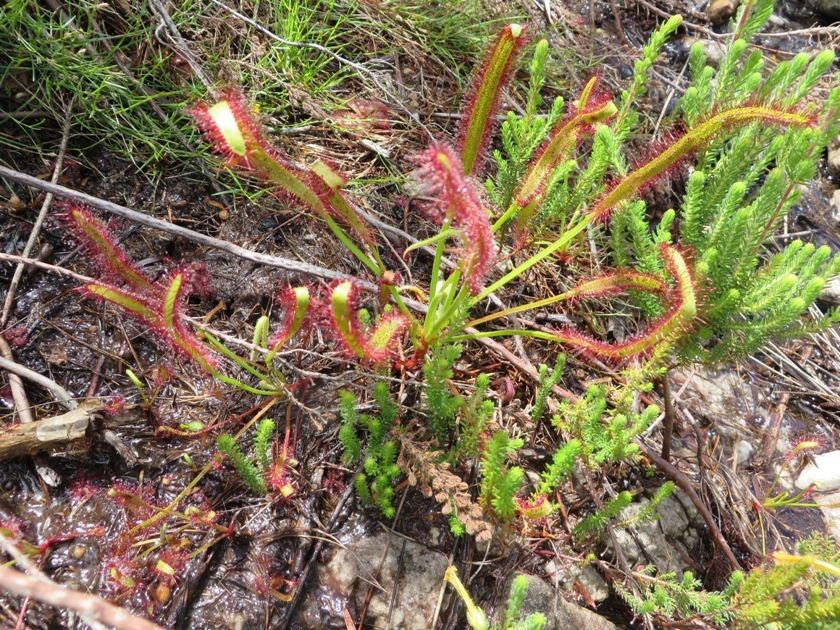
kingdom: Plantae
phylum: Tracheophyta
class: Magnoliopsida
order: Caryophyllales
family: Droseraceae
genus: Drosera
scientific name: Drosera capensis
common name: Cape sundew
